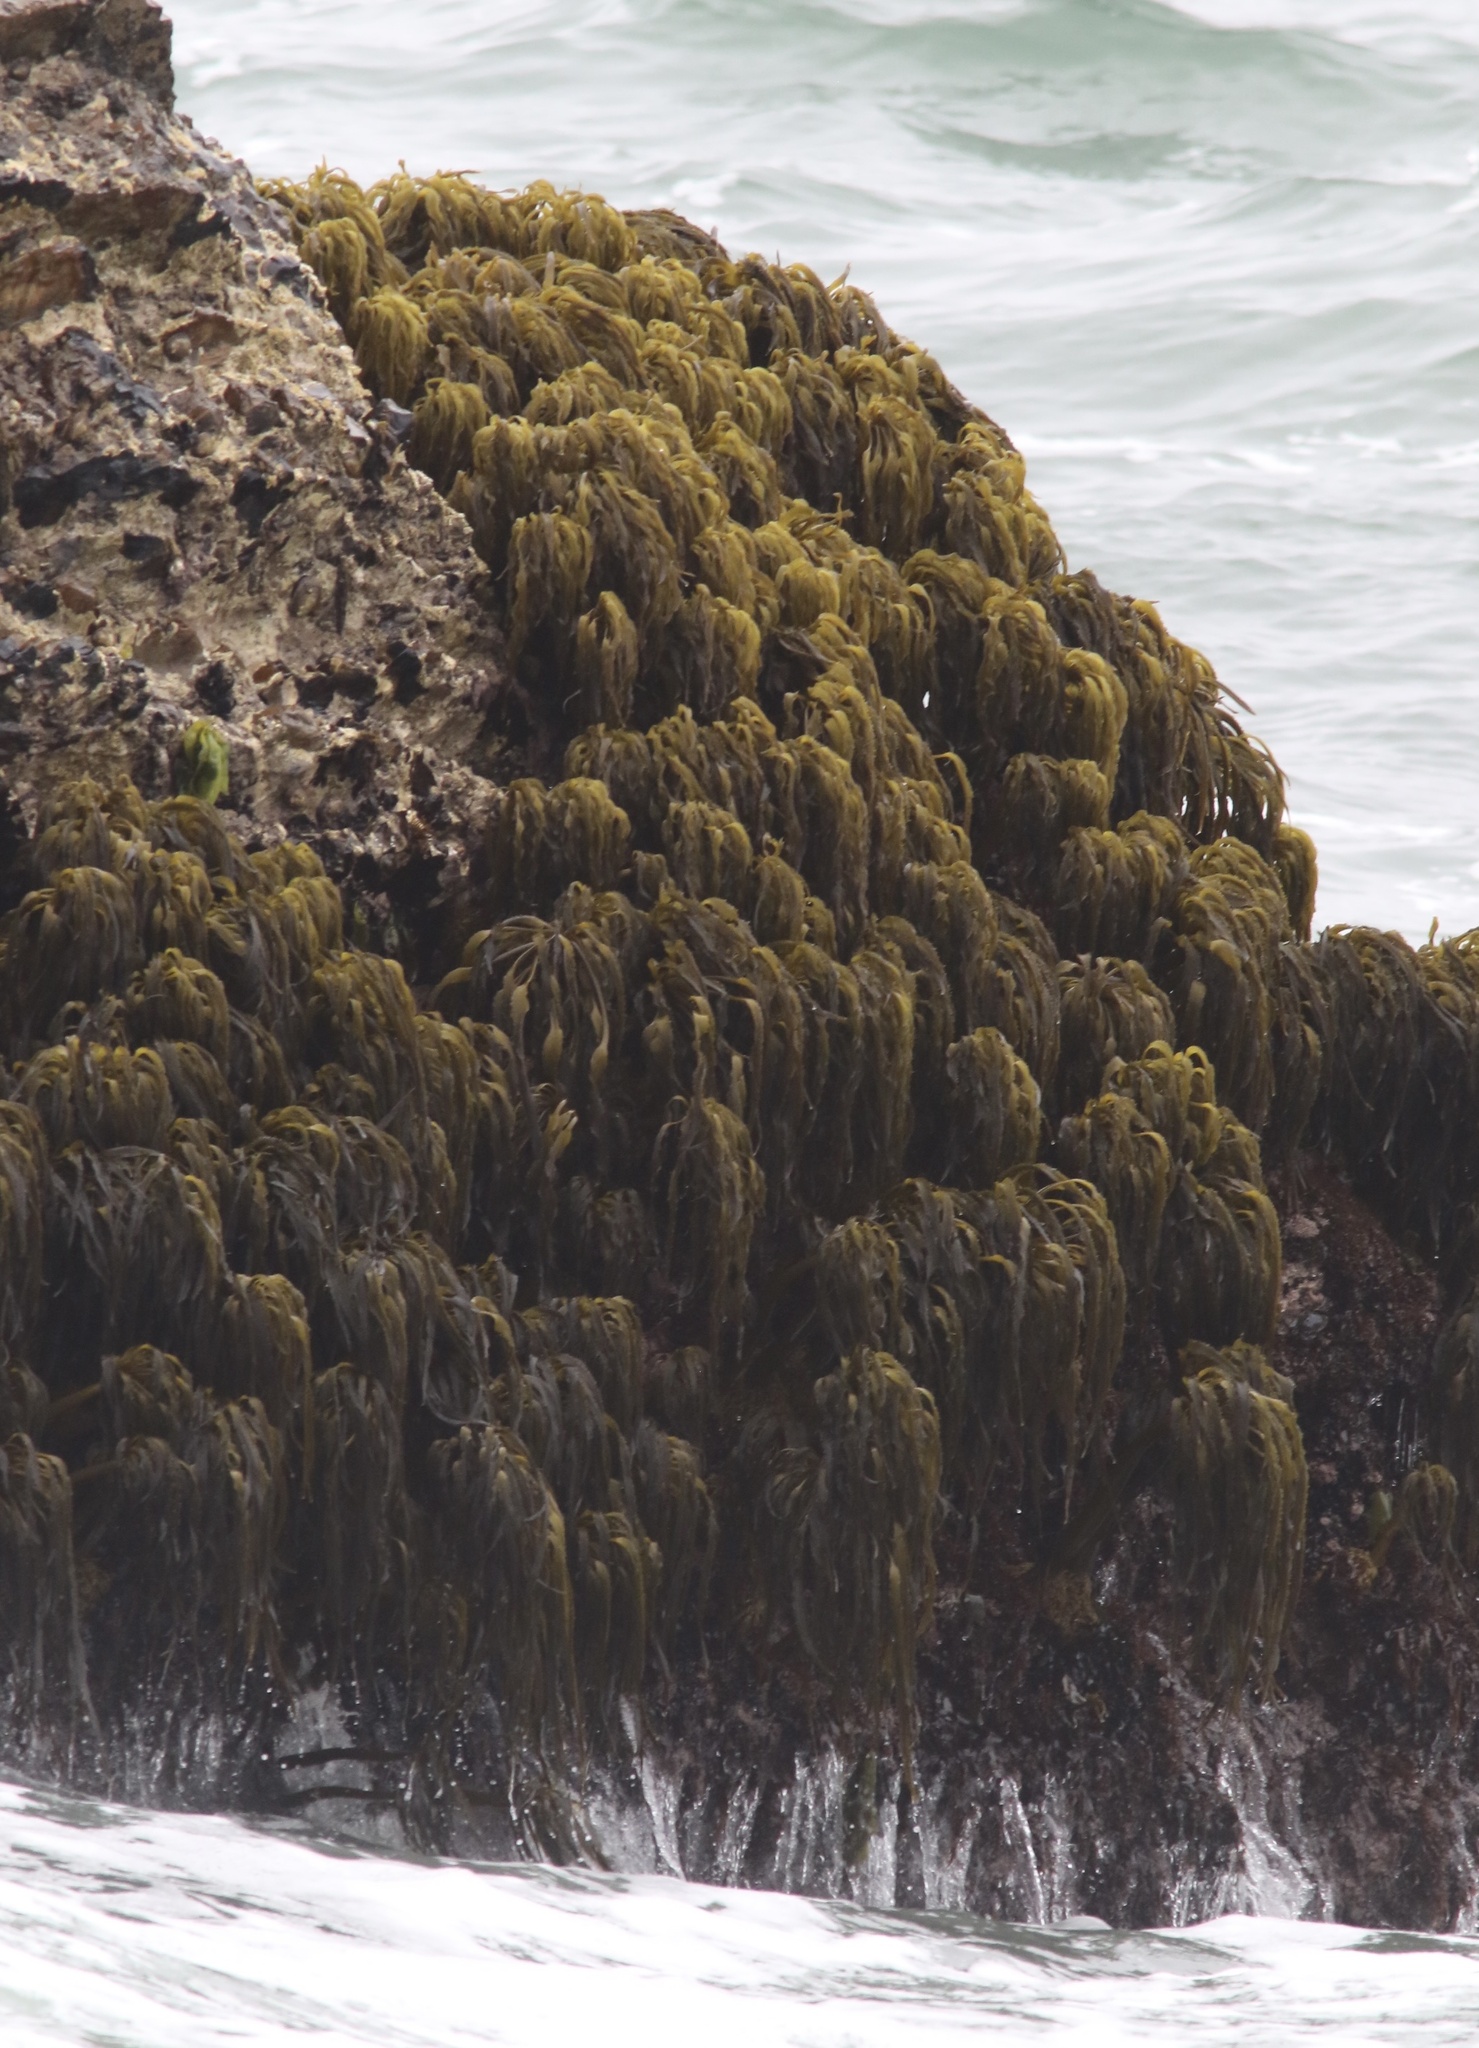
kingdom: Chromista
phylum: Ochrophyta
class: Phaeophyceae
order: Laminariales
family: Laminariaceae
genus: Postelsia
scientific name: Postelsia palmiformis
